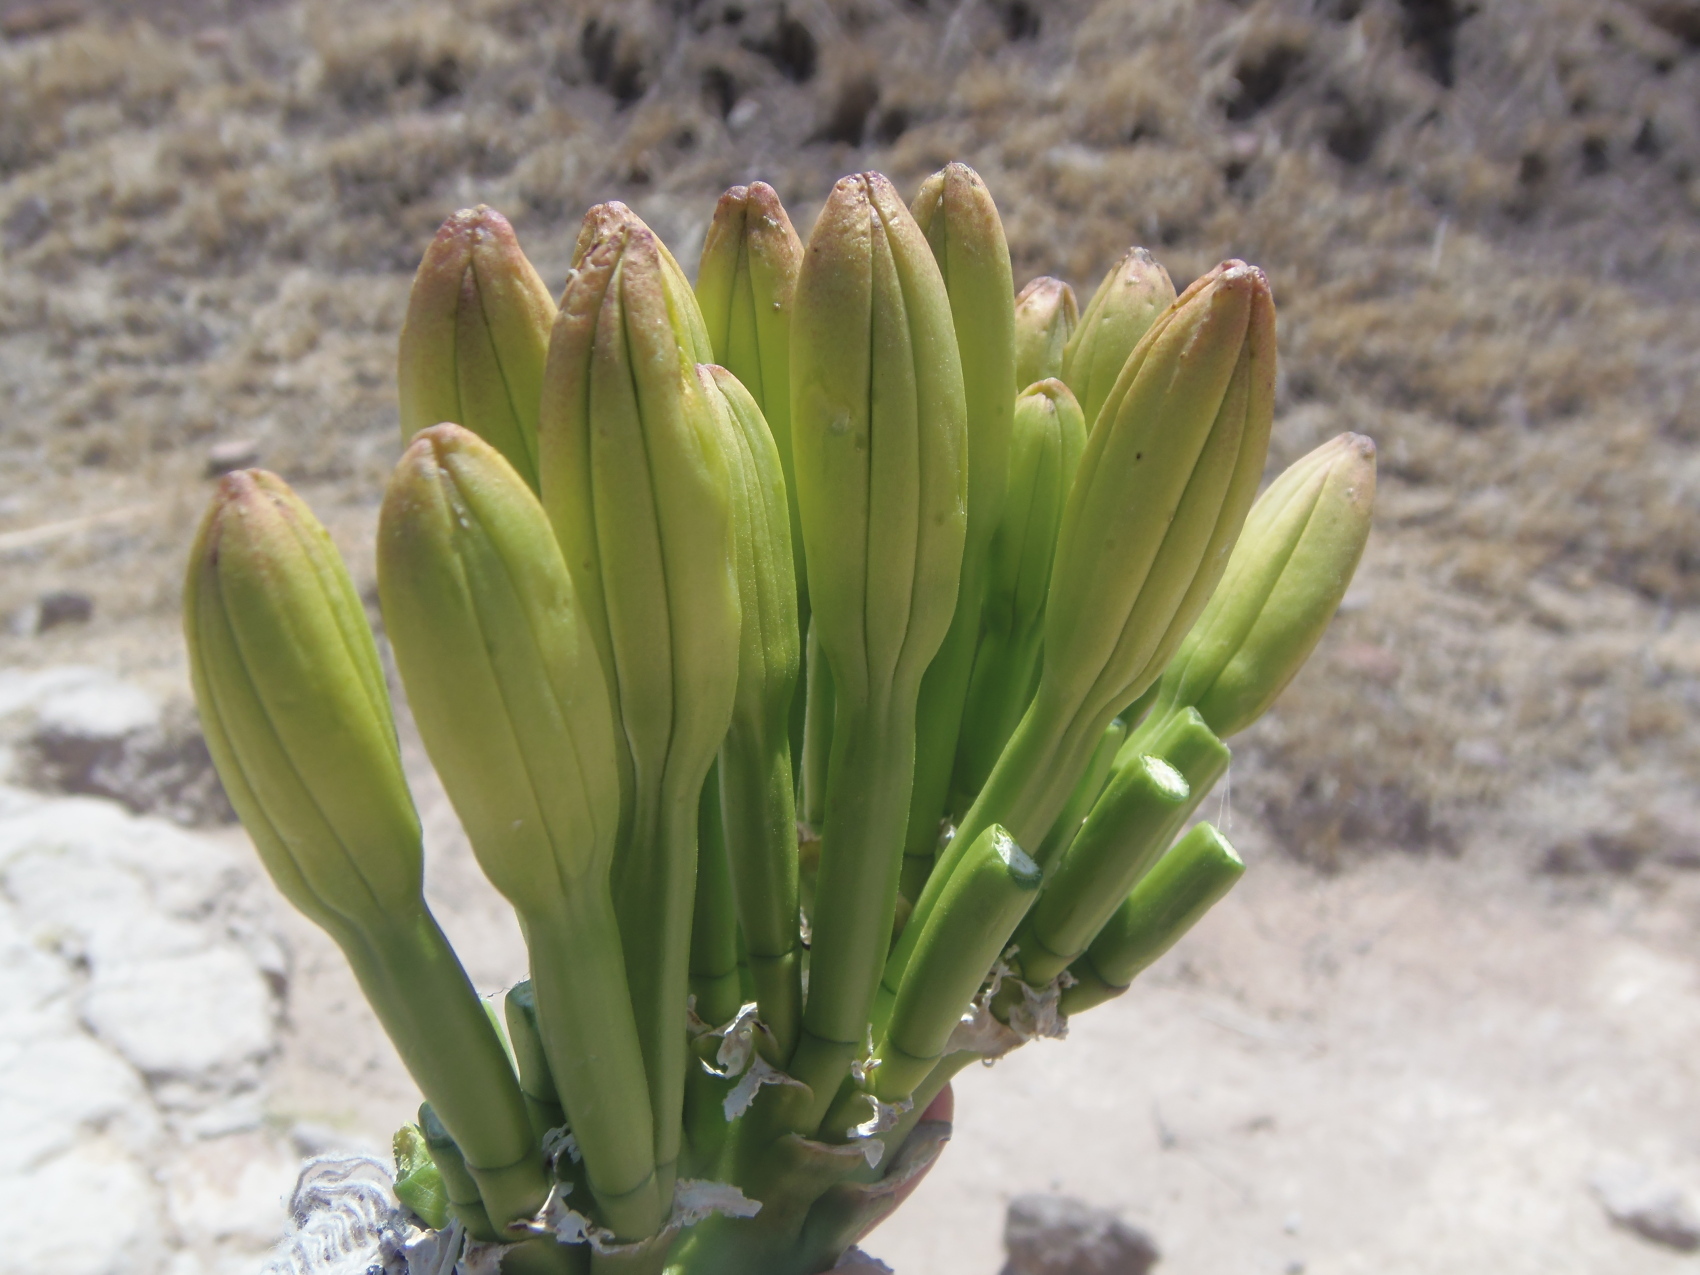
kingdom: Plantae
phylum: Tracheophyta
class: Liliopsida
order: Asparagales
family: Asparagaceae
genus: Agave
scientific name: Agave mapisaga
